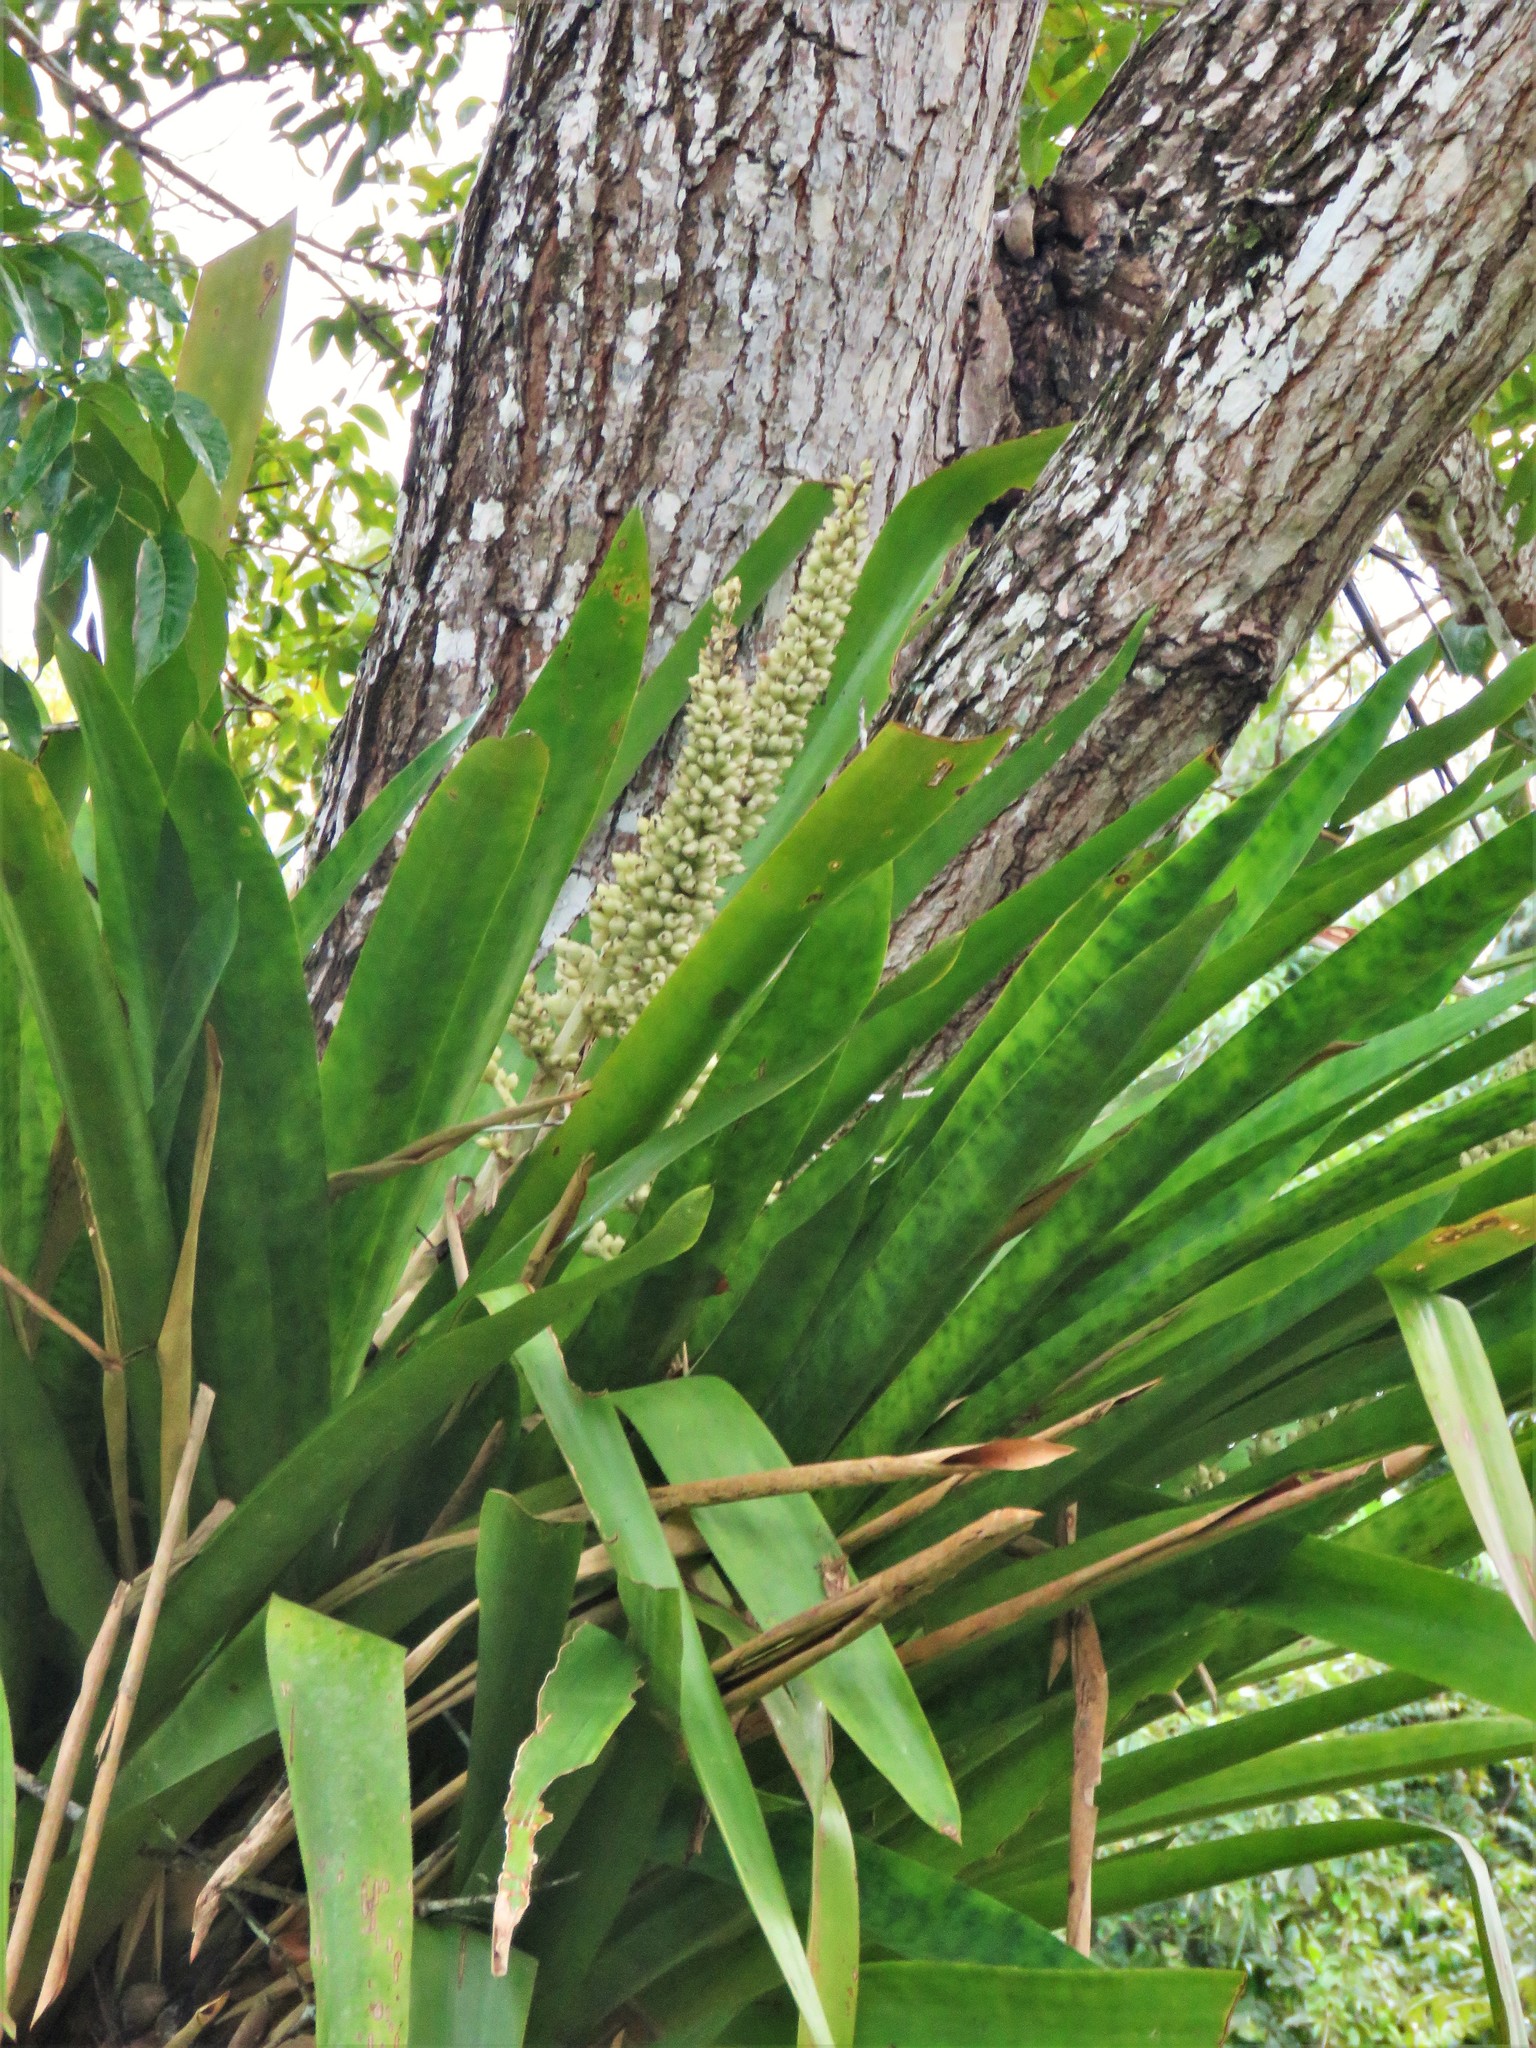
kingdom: Plantae
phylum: Tracheophyta
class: Liliopsida
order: Poales
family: Bromeliaceae
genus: Androlepis
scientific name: Androlepis skinneri
